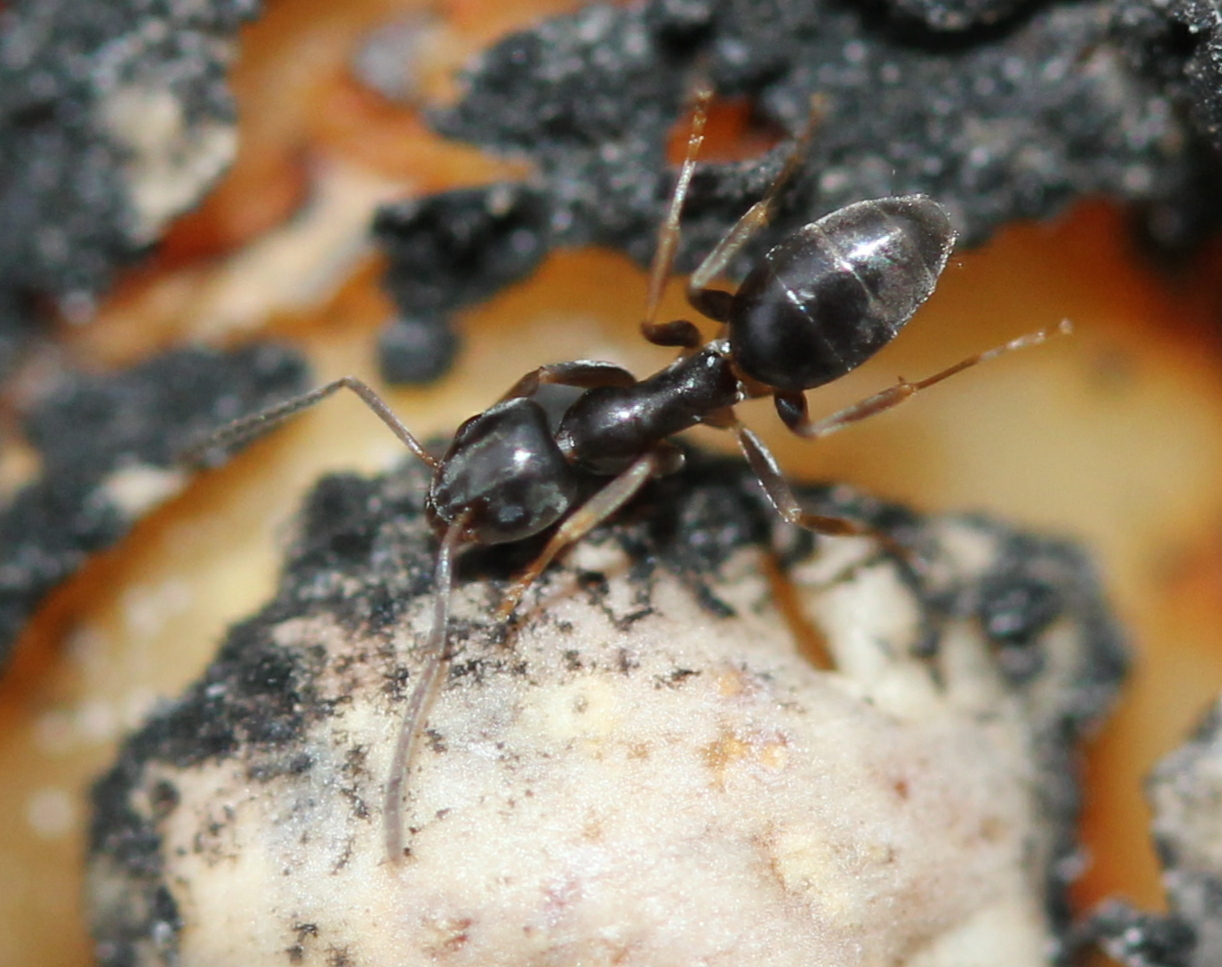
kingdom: Animalia
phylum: Arthropoda
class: Insecta
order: Hymenoptera
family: Formicidae
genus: Tapinoma
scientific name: Tapinoma sessile
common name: Odorous house ant
